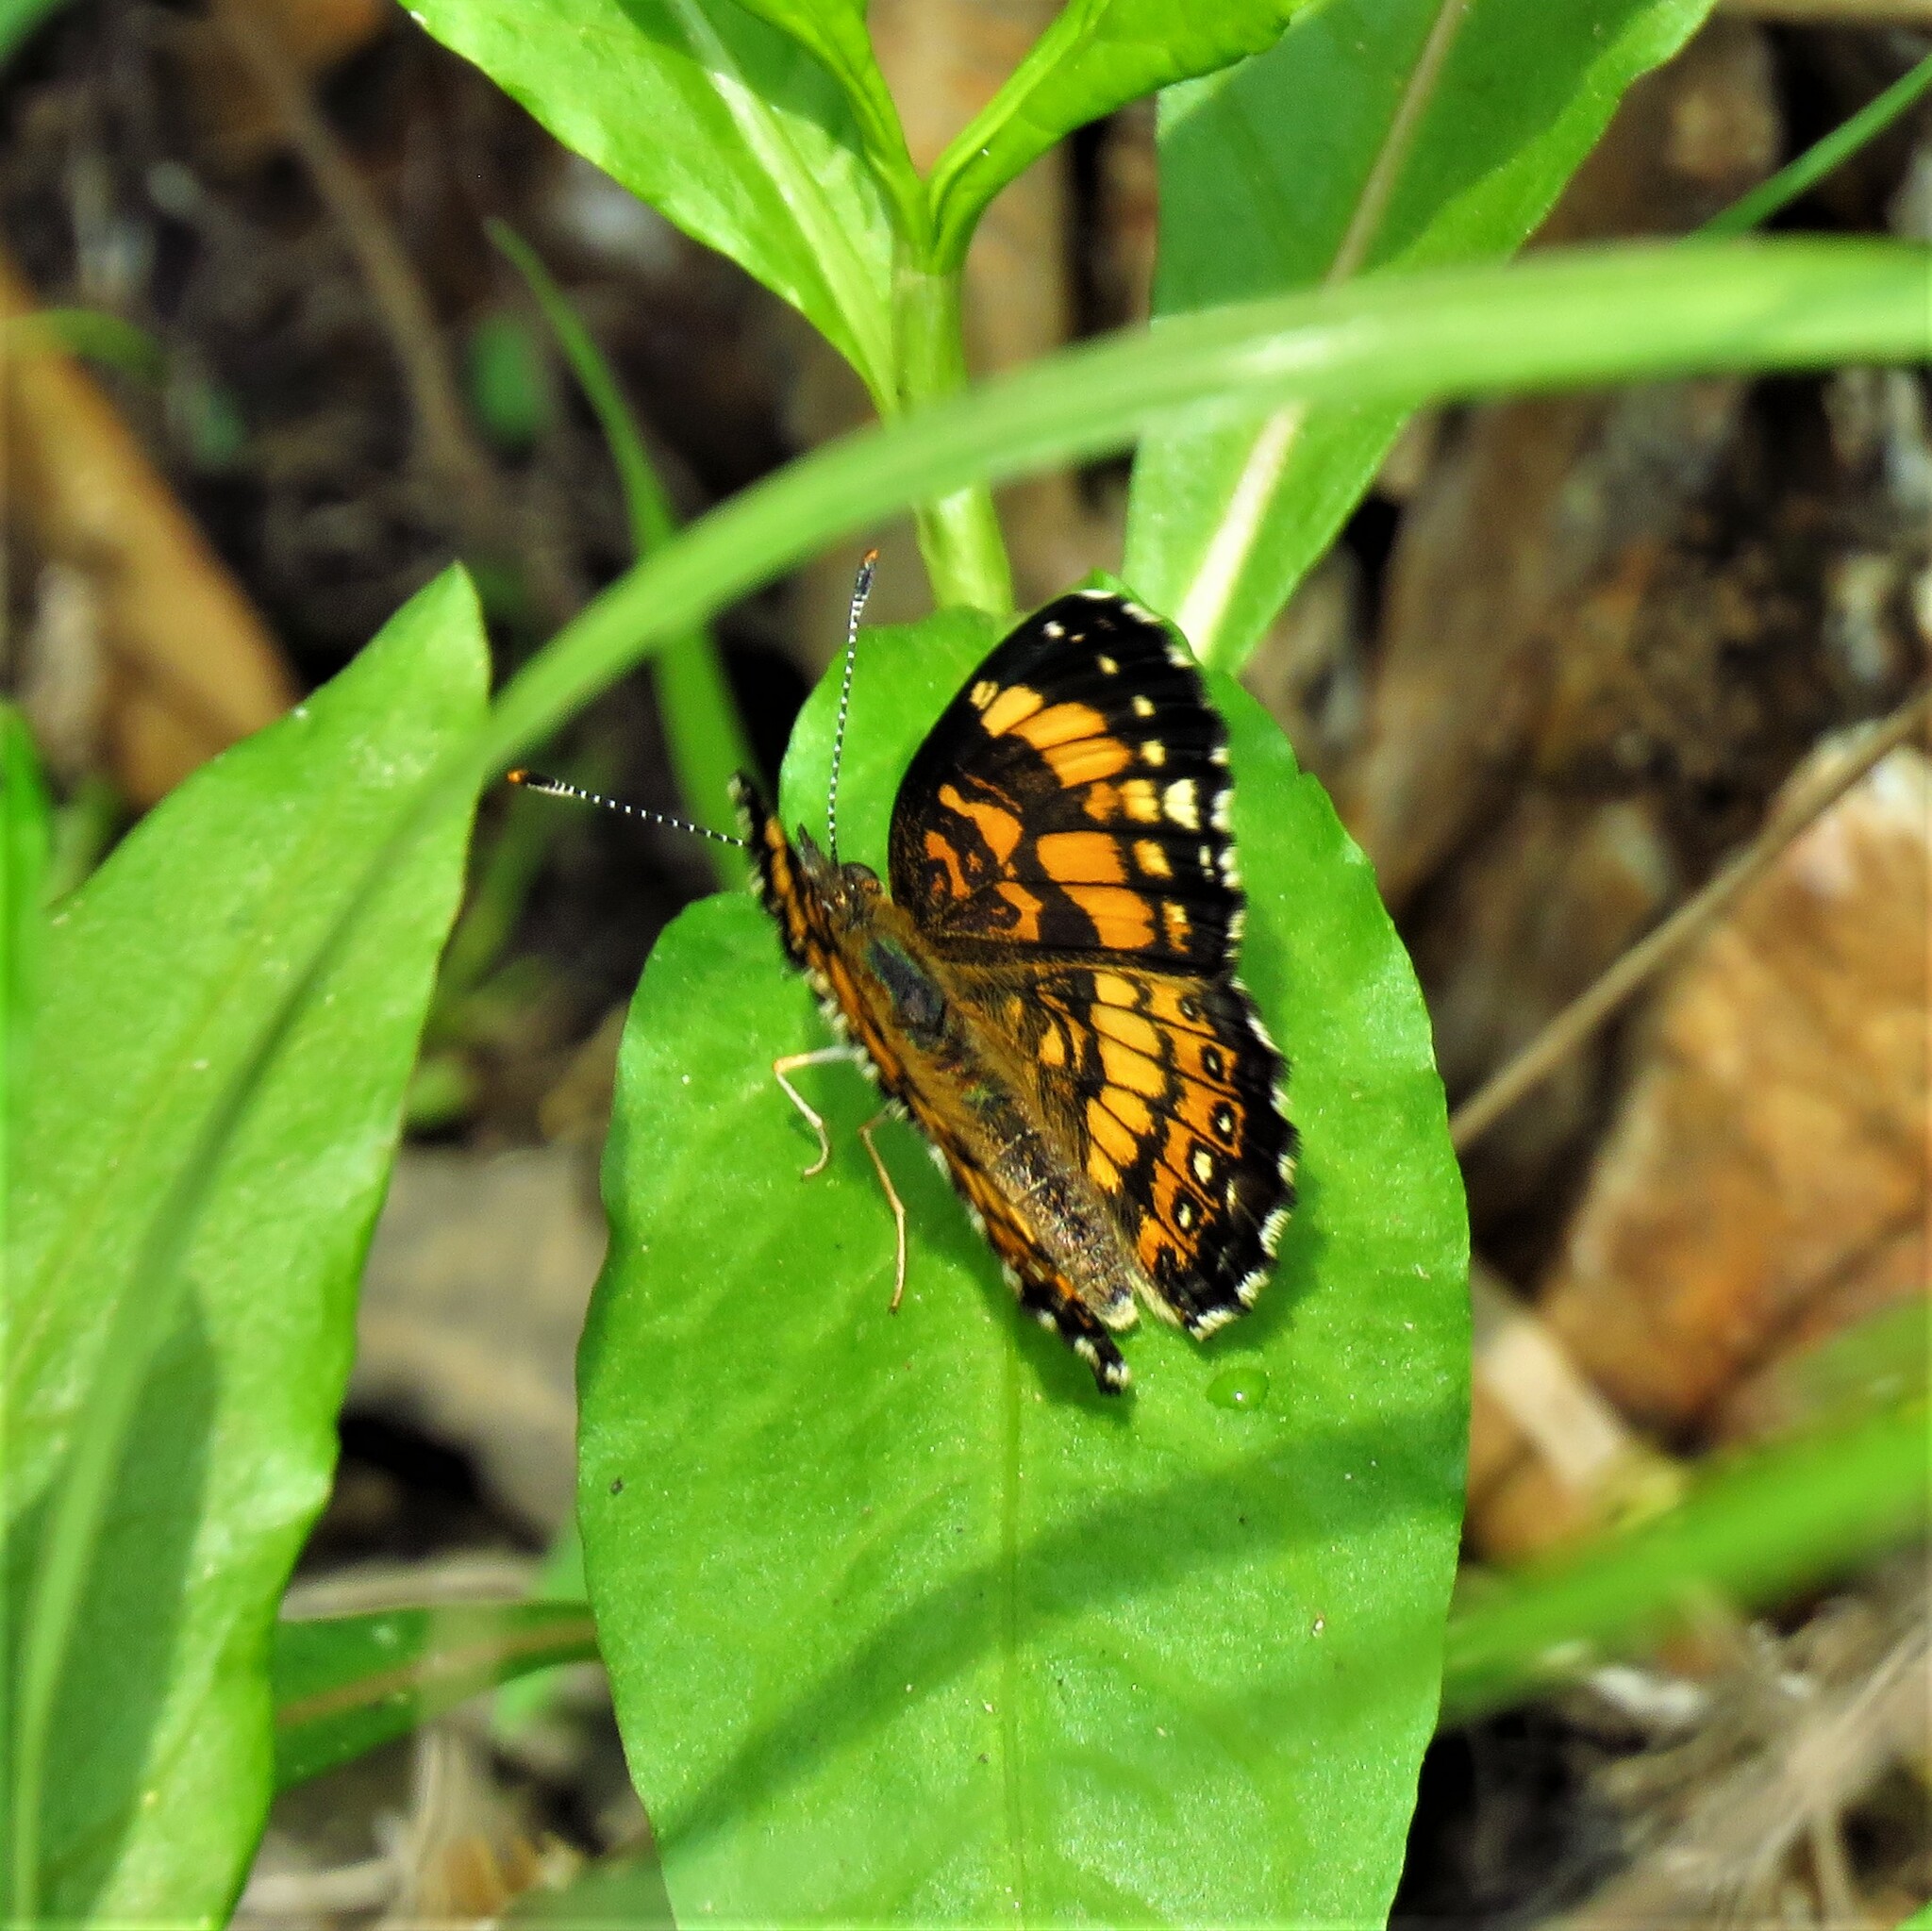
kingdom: Animalia
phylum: Arthropoda
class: Insecta
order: Lepidoptera
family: Nymphalidae
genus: Chlosyne
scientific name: Chlosyne nycteis
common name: Silvery checkerspot
